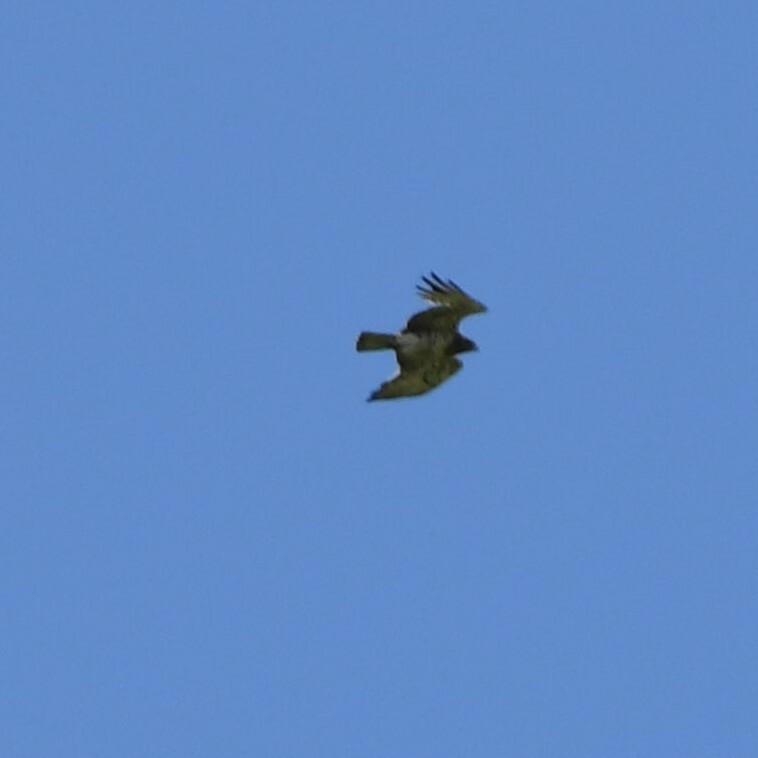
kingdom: Animalia
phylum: Chordata
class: Aves
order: Accipitriformes
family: Accipitridae
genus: Circaetus
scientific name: Circaetus gallicus
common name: Short-toed snake eagle
